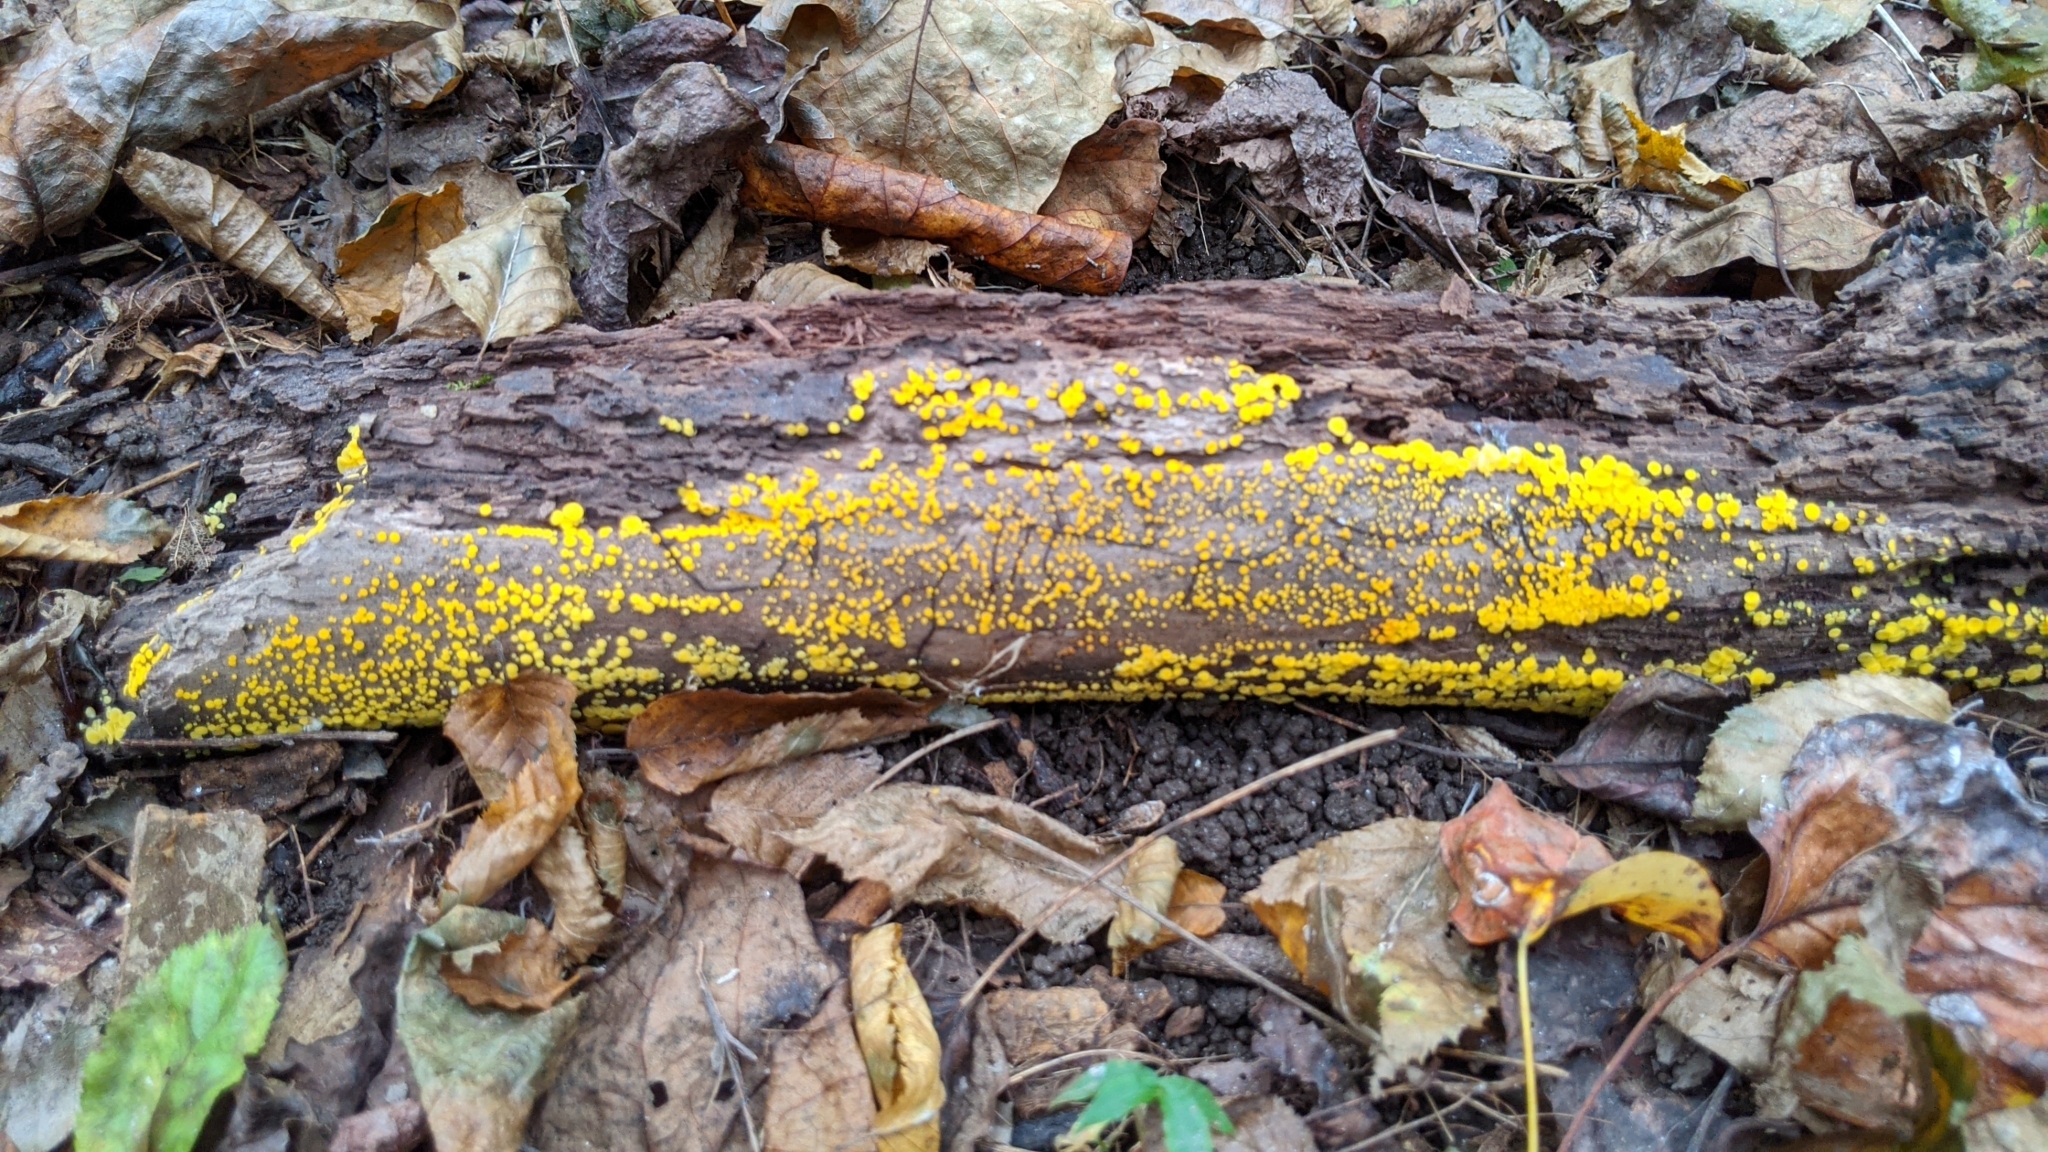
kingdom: Fungi
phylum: Ascomycota
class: Leotiomycetes
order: Helotiales
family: Pezizellaceae
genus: Calycina
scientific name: Calycina citrina
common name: Yellow fairy cups
